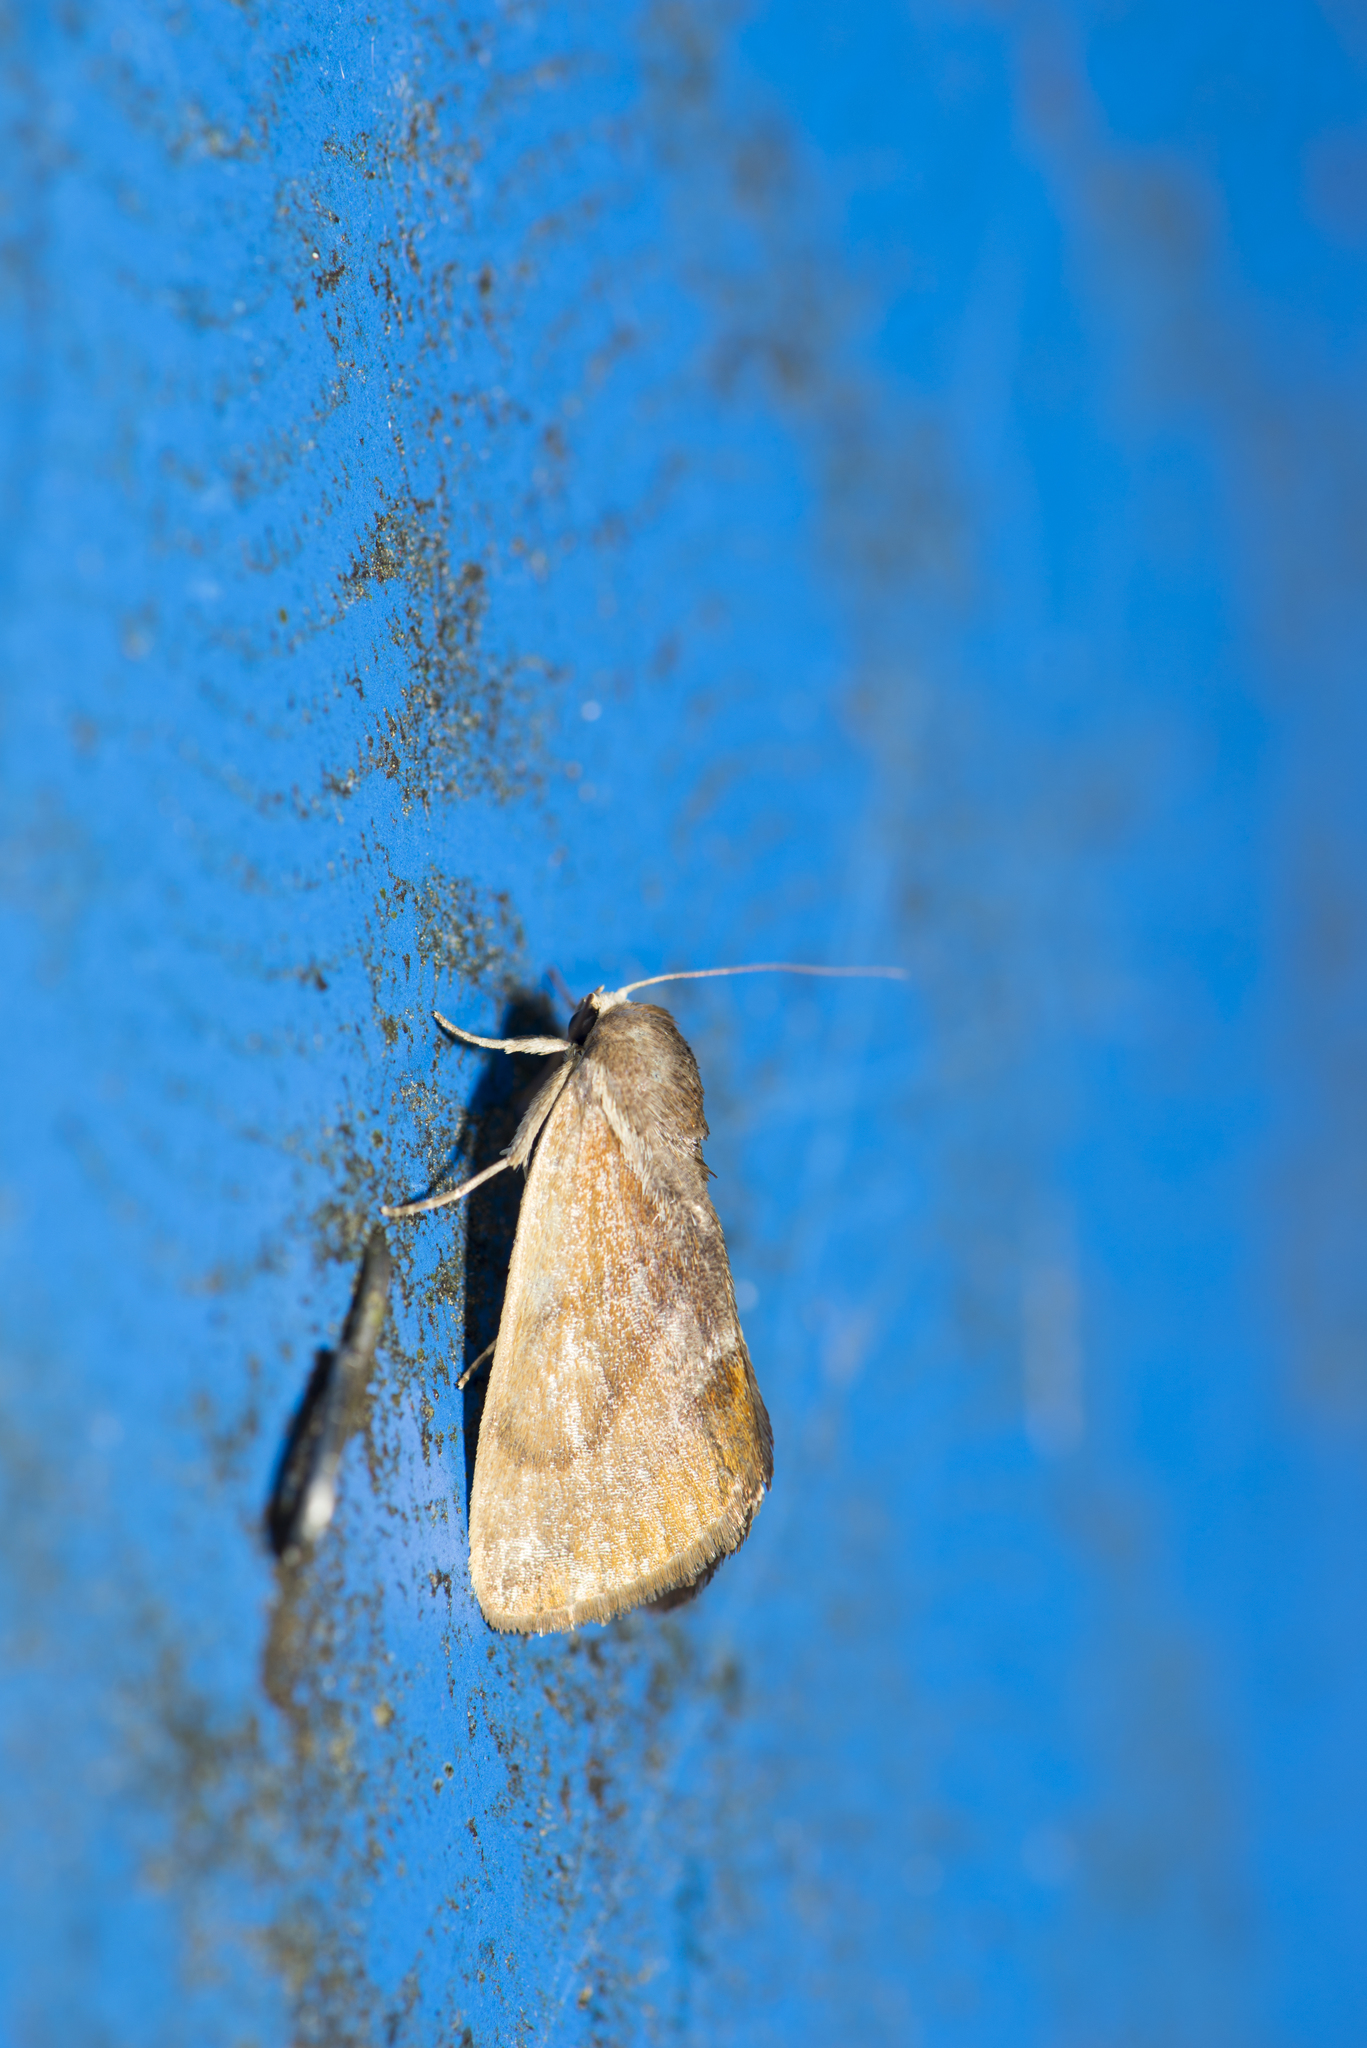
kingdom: Animalia
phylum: Arthropoda
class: Insecta
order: Lepidoptera
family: Nolidae
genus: Iragaodes
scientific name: Iragaodes nobilis
